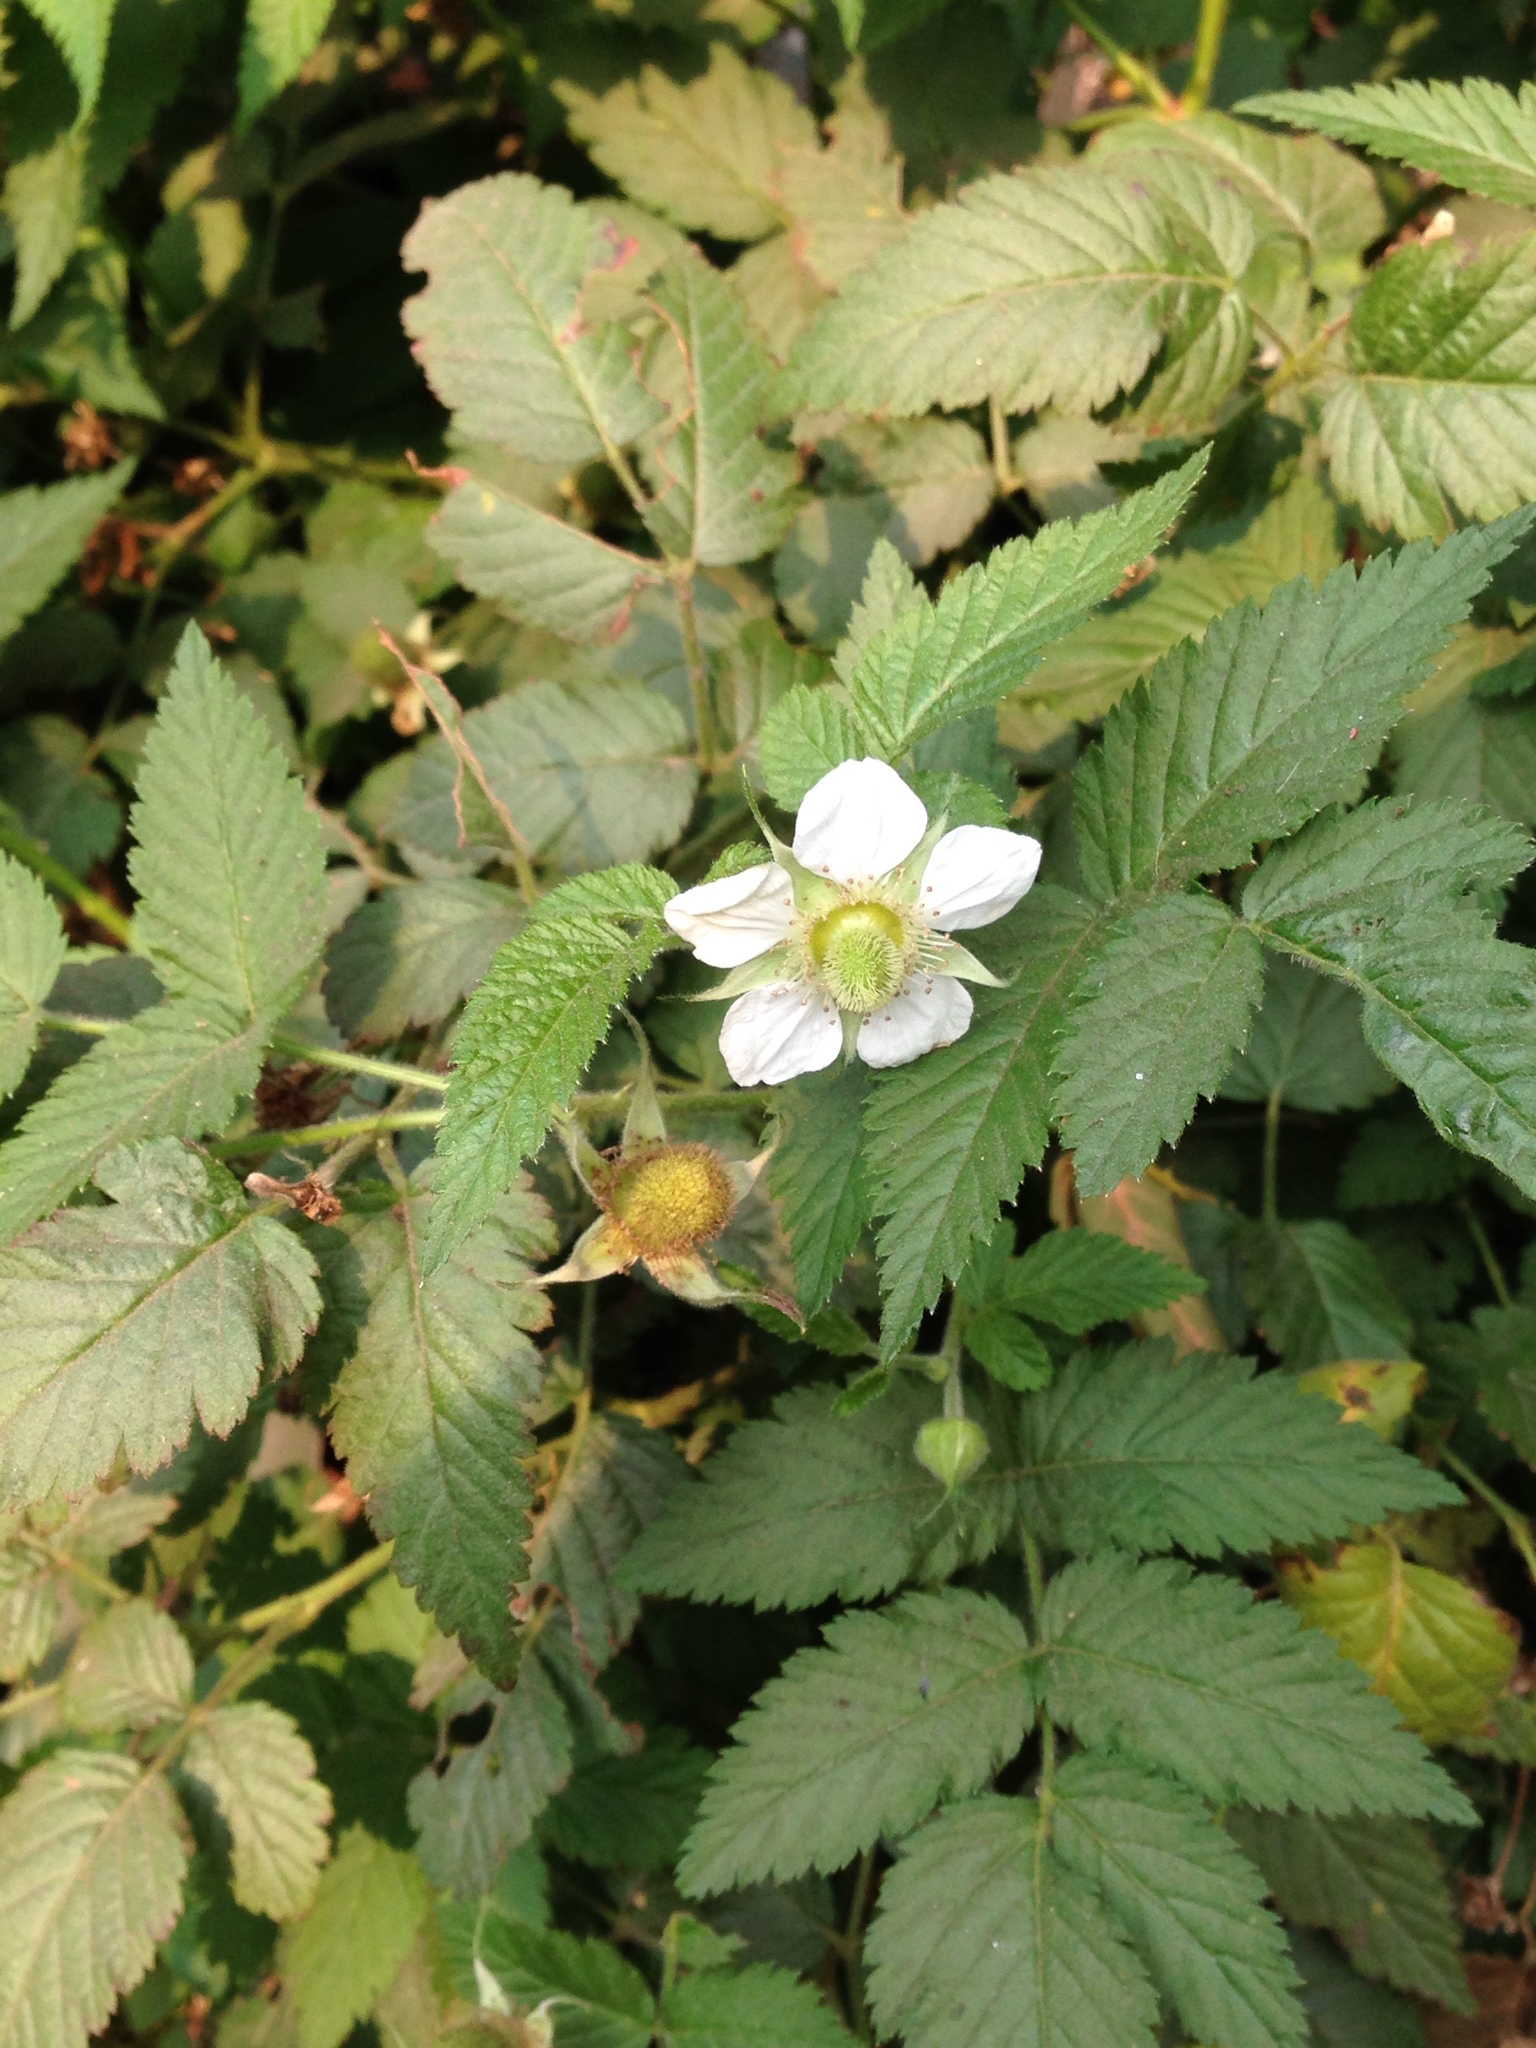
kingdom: Plantae
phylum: Tracheophyta
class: Magnoliopsida
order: Rosales
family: Rosaceae
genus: Rubus
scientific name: Rubus rosifolius
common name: Roseleaf raspberry
